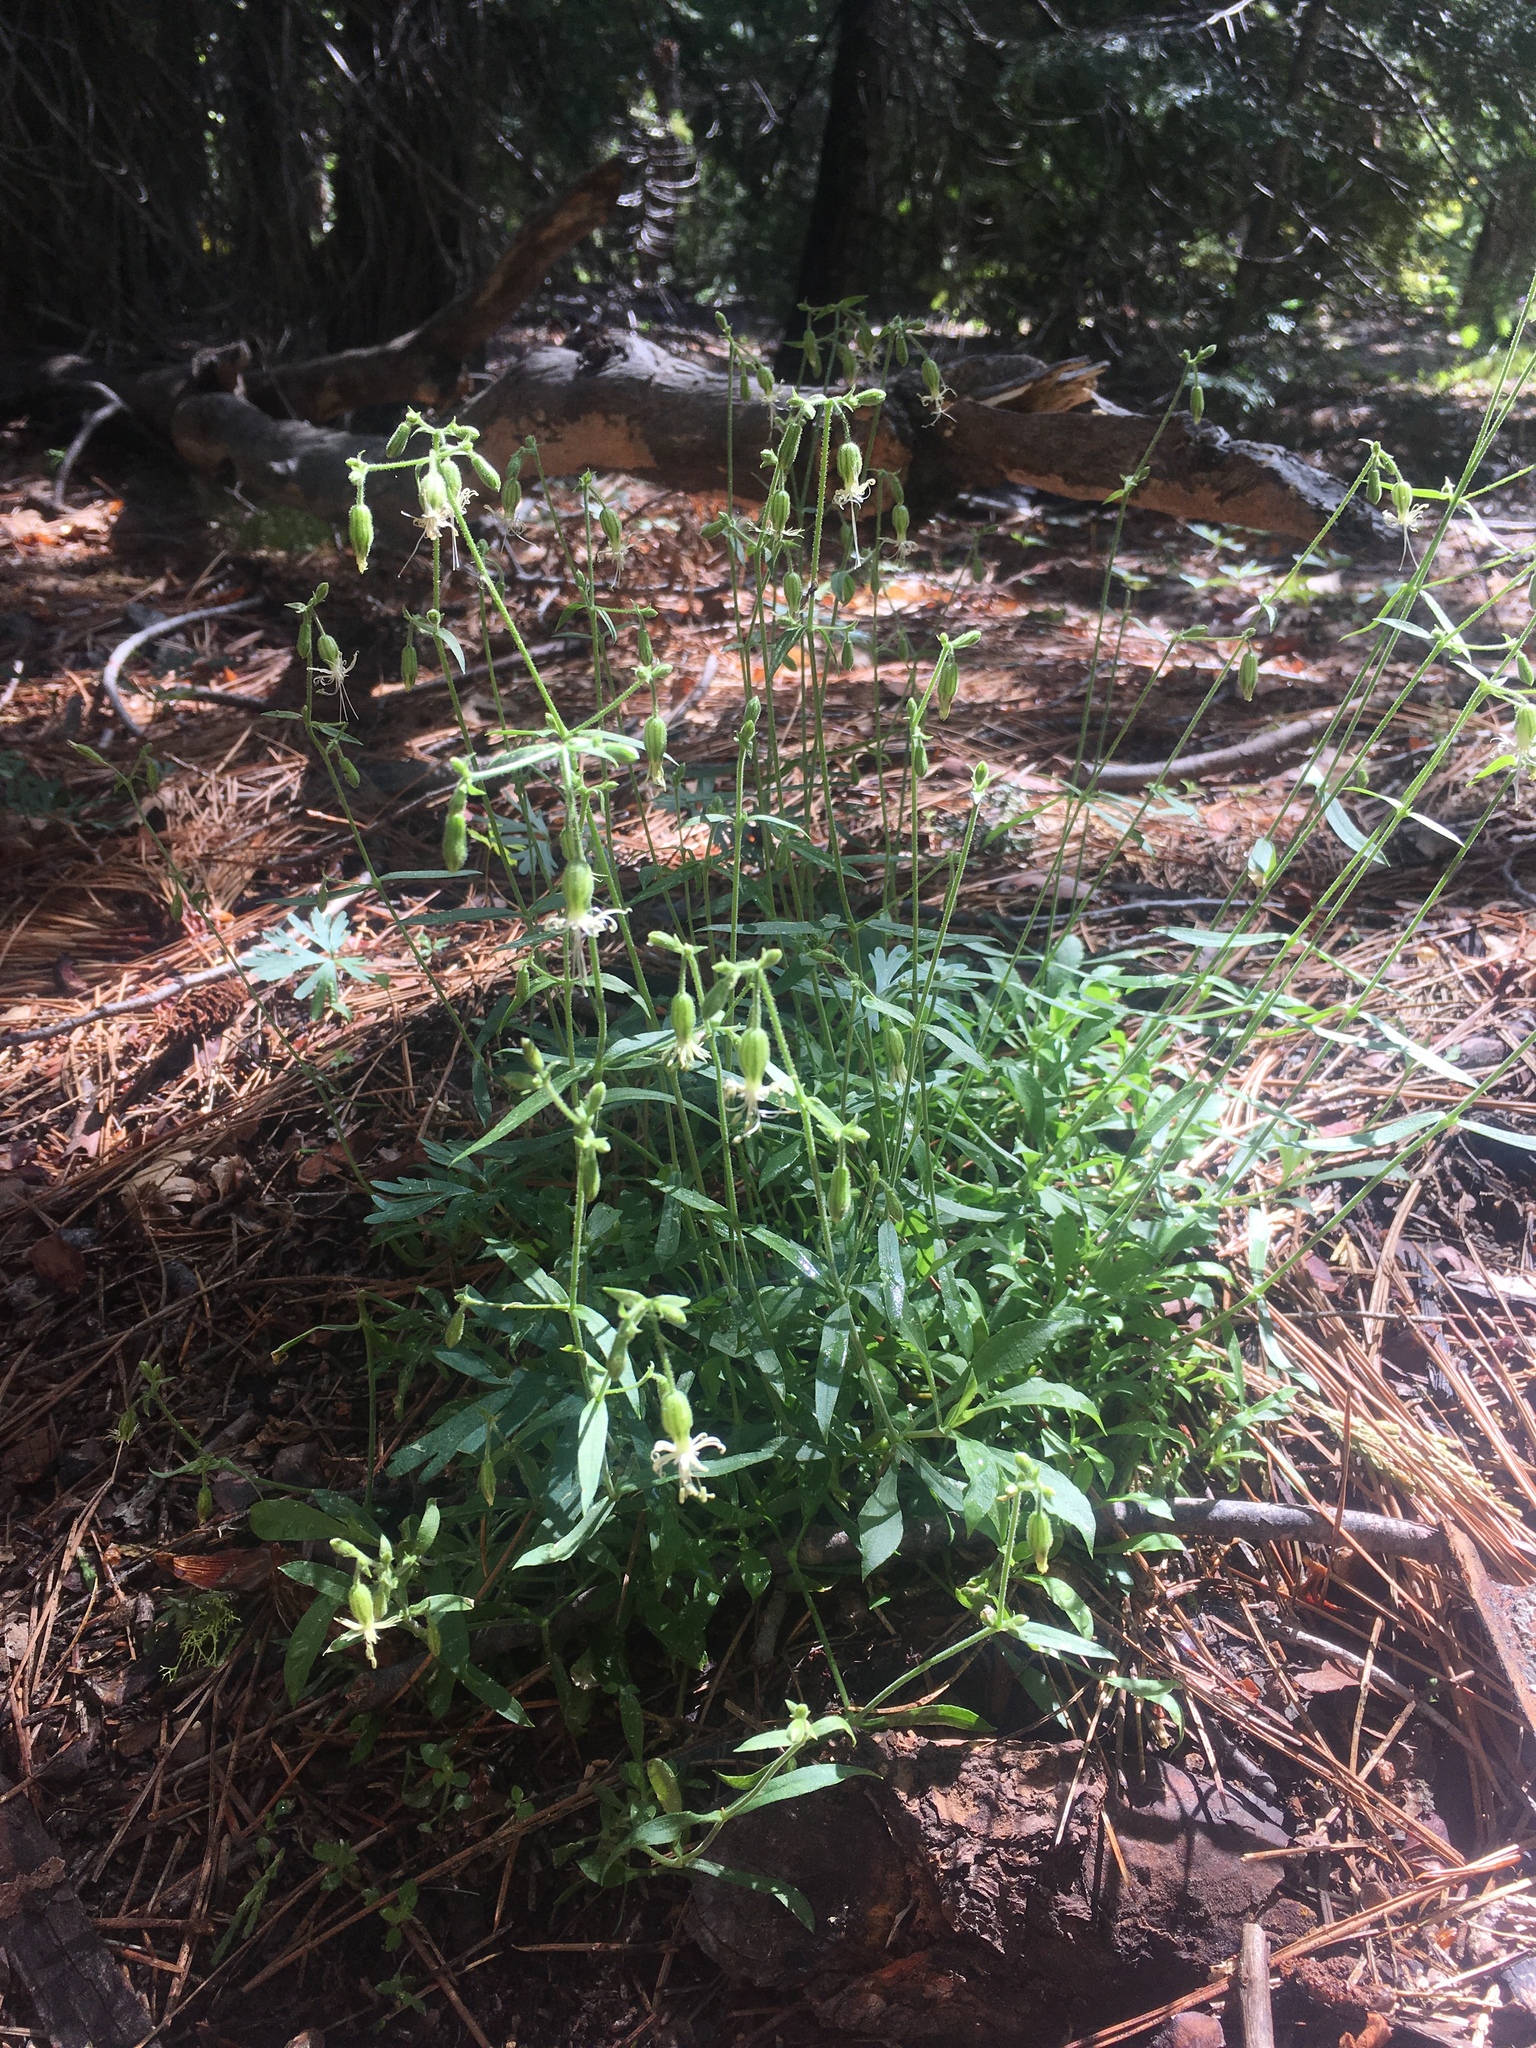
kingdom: Plantae
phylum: Tracheophyta
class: Magnoliopsida
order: Caryophyllales
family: Caryophyllaceae
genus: Silene
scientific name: Silene lemmonii
